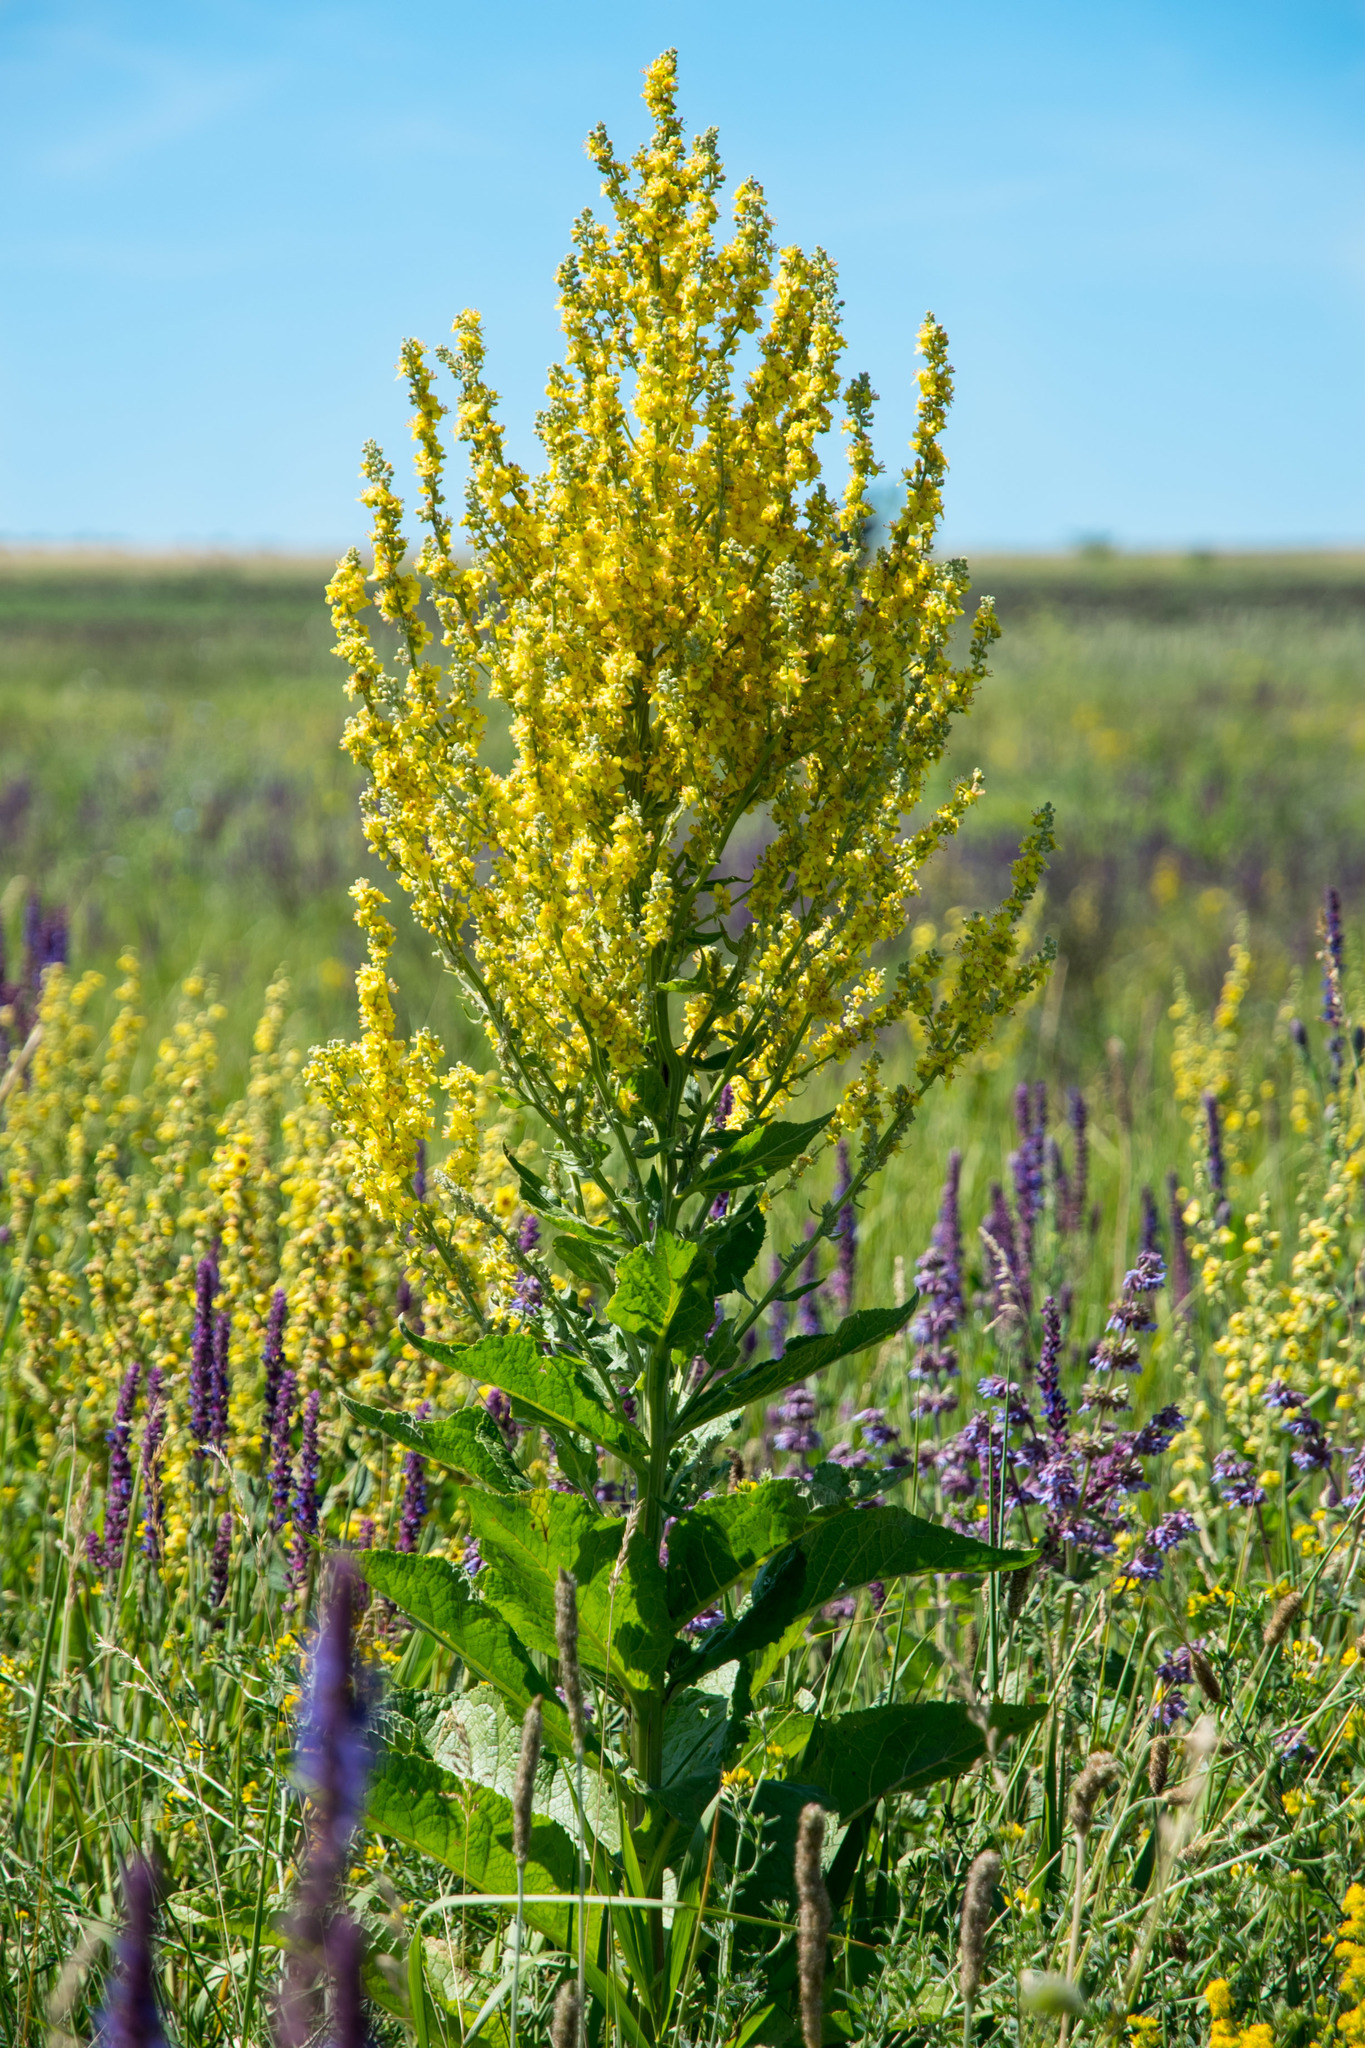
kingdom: Plantae
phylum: Tracheophyta
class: Magnoliopsida
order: Lamiales
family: Scrophulariaceae
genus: Verbascum
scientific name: Verbascum lychnitis
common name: White mullein
